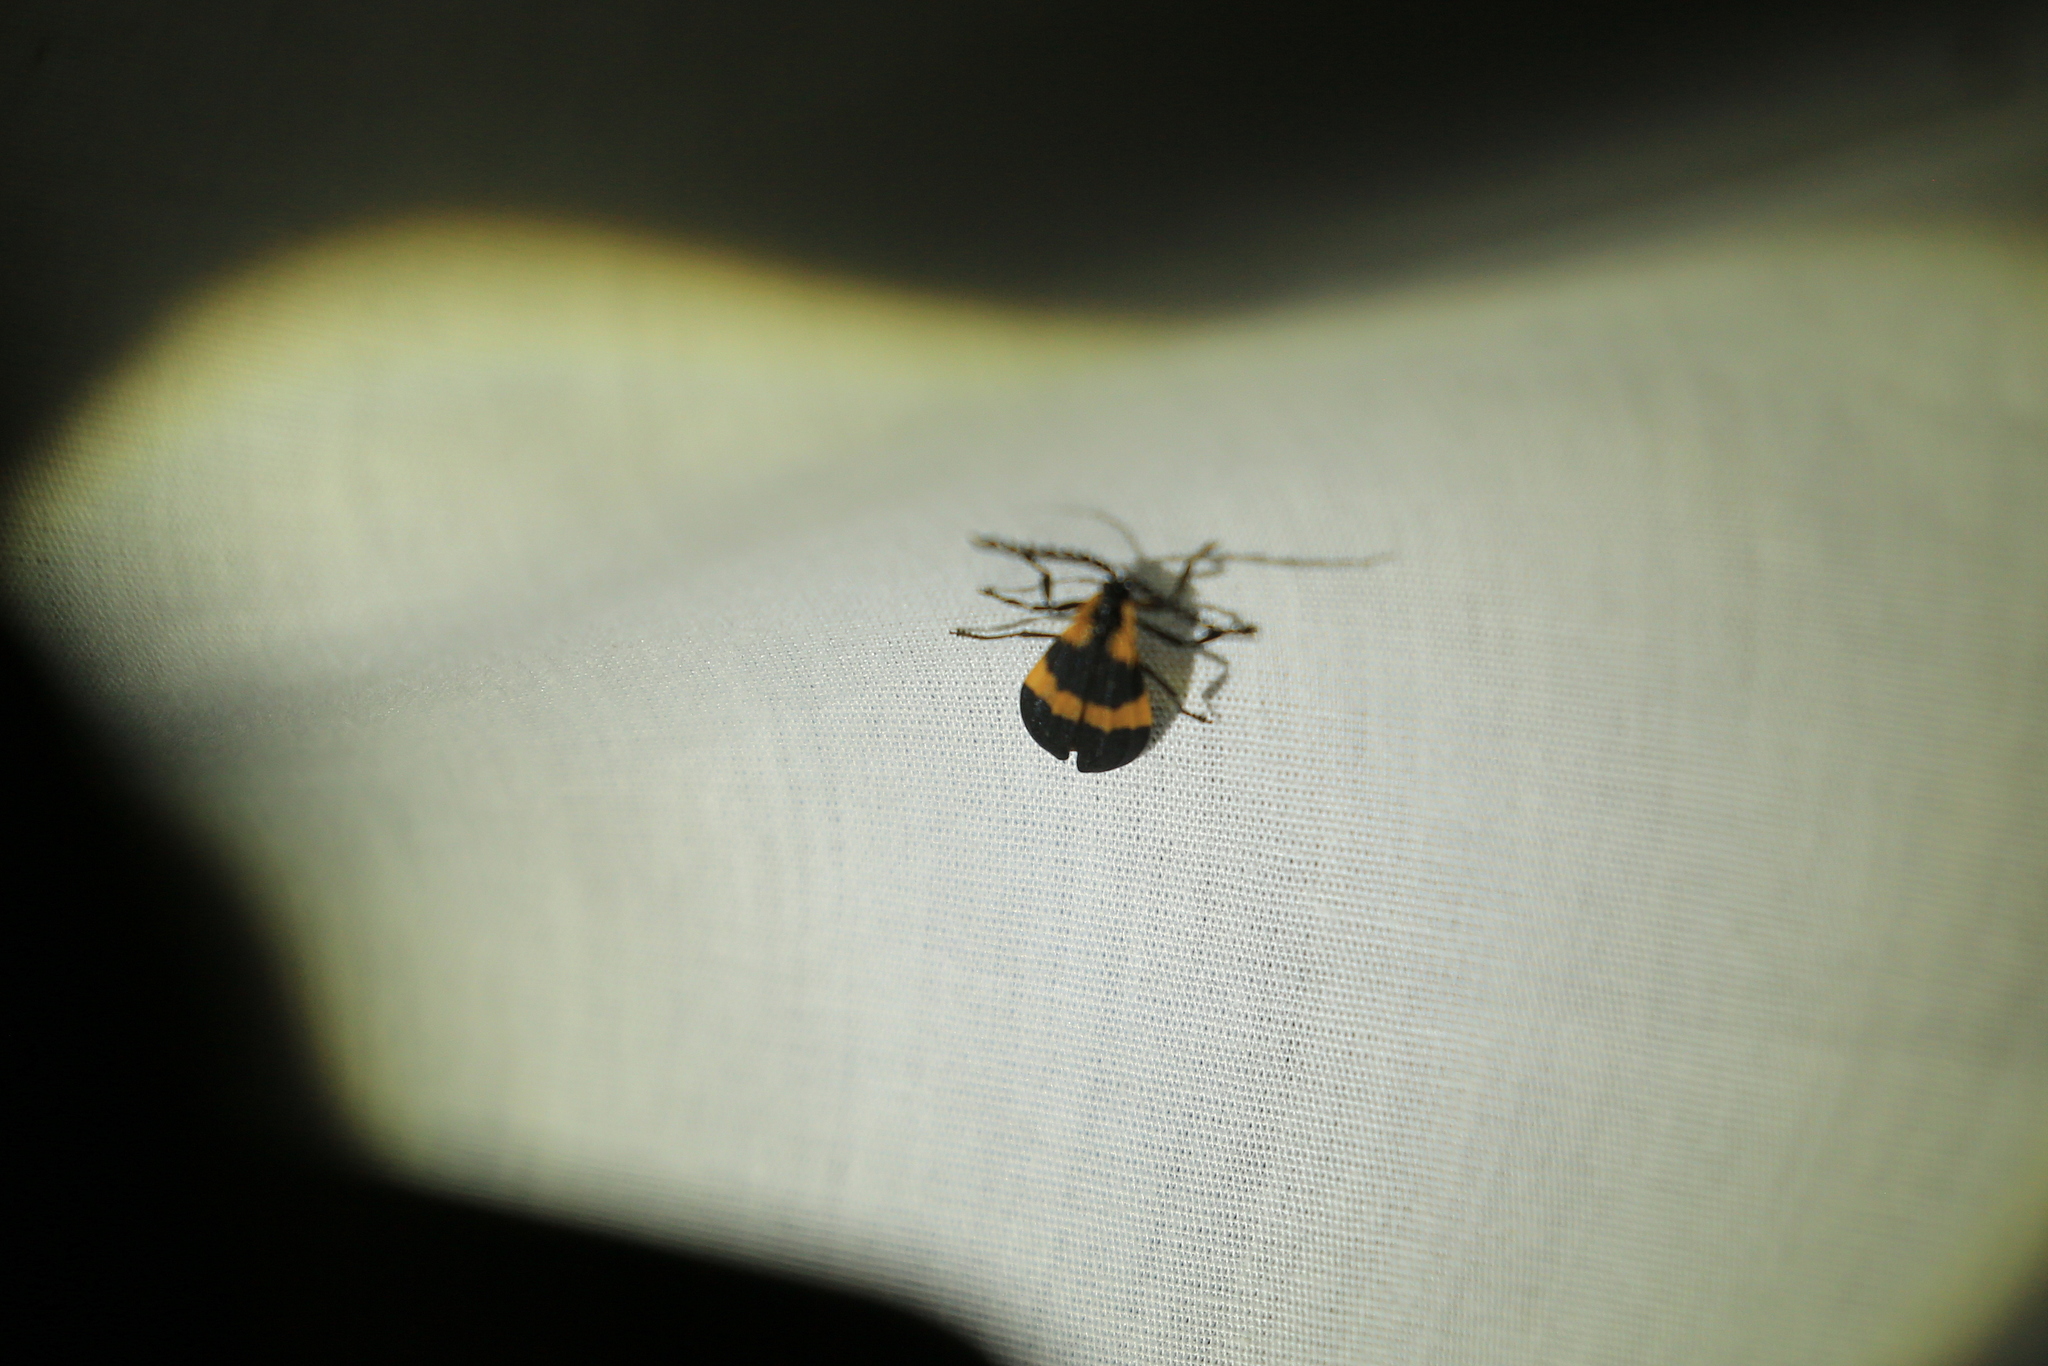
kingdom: Animalia
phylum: Arthropoda
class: Insecta
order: Coleoptera
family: Lycidae
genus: Calopteron
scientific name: Calopteron reticulatum
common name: Banded net-winged beetle
